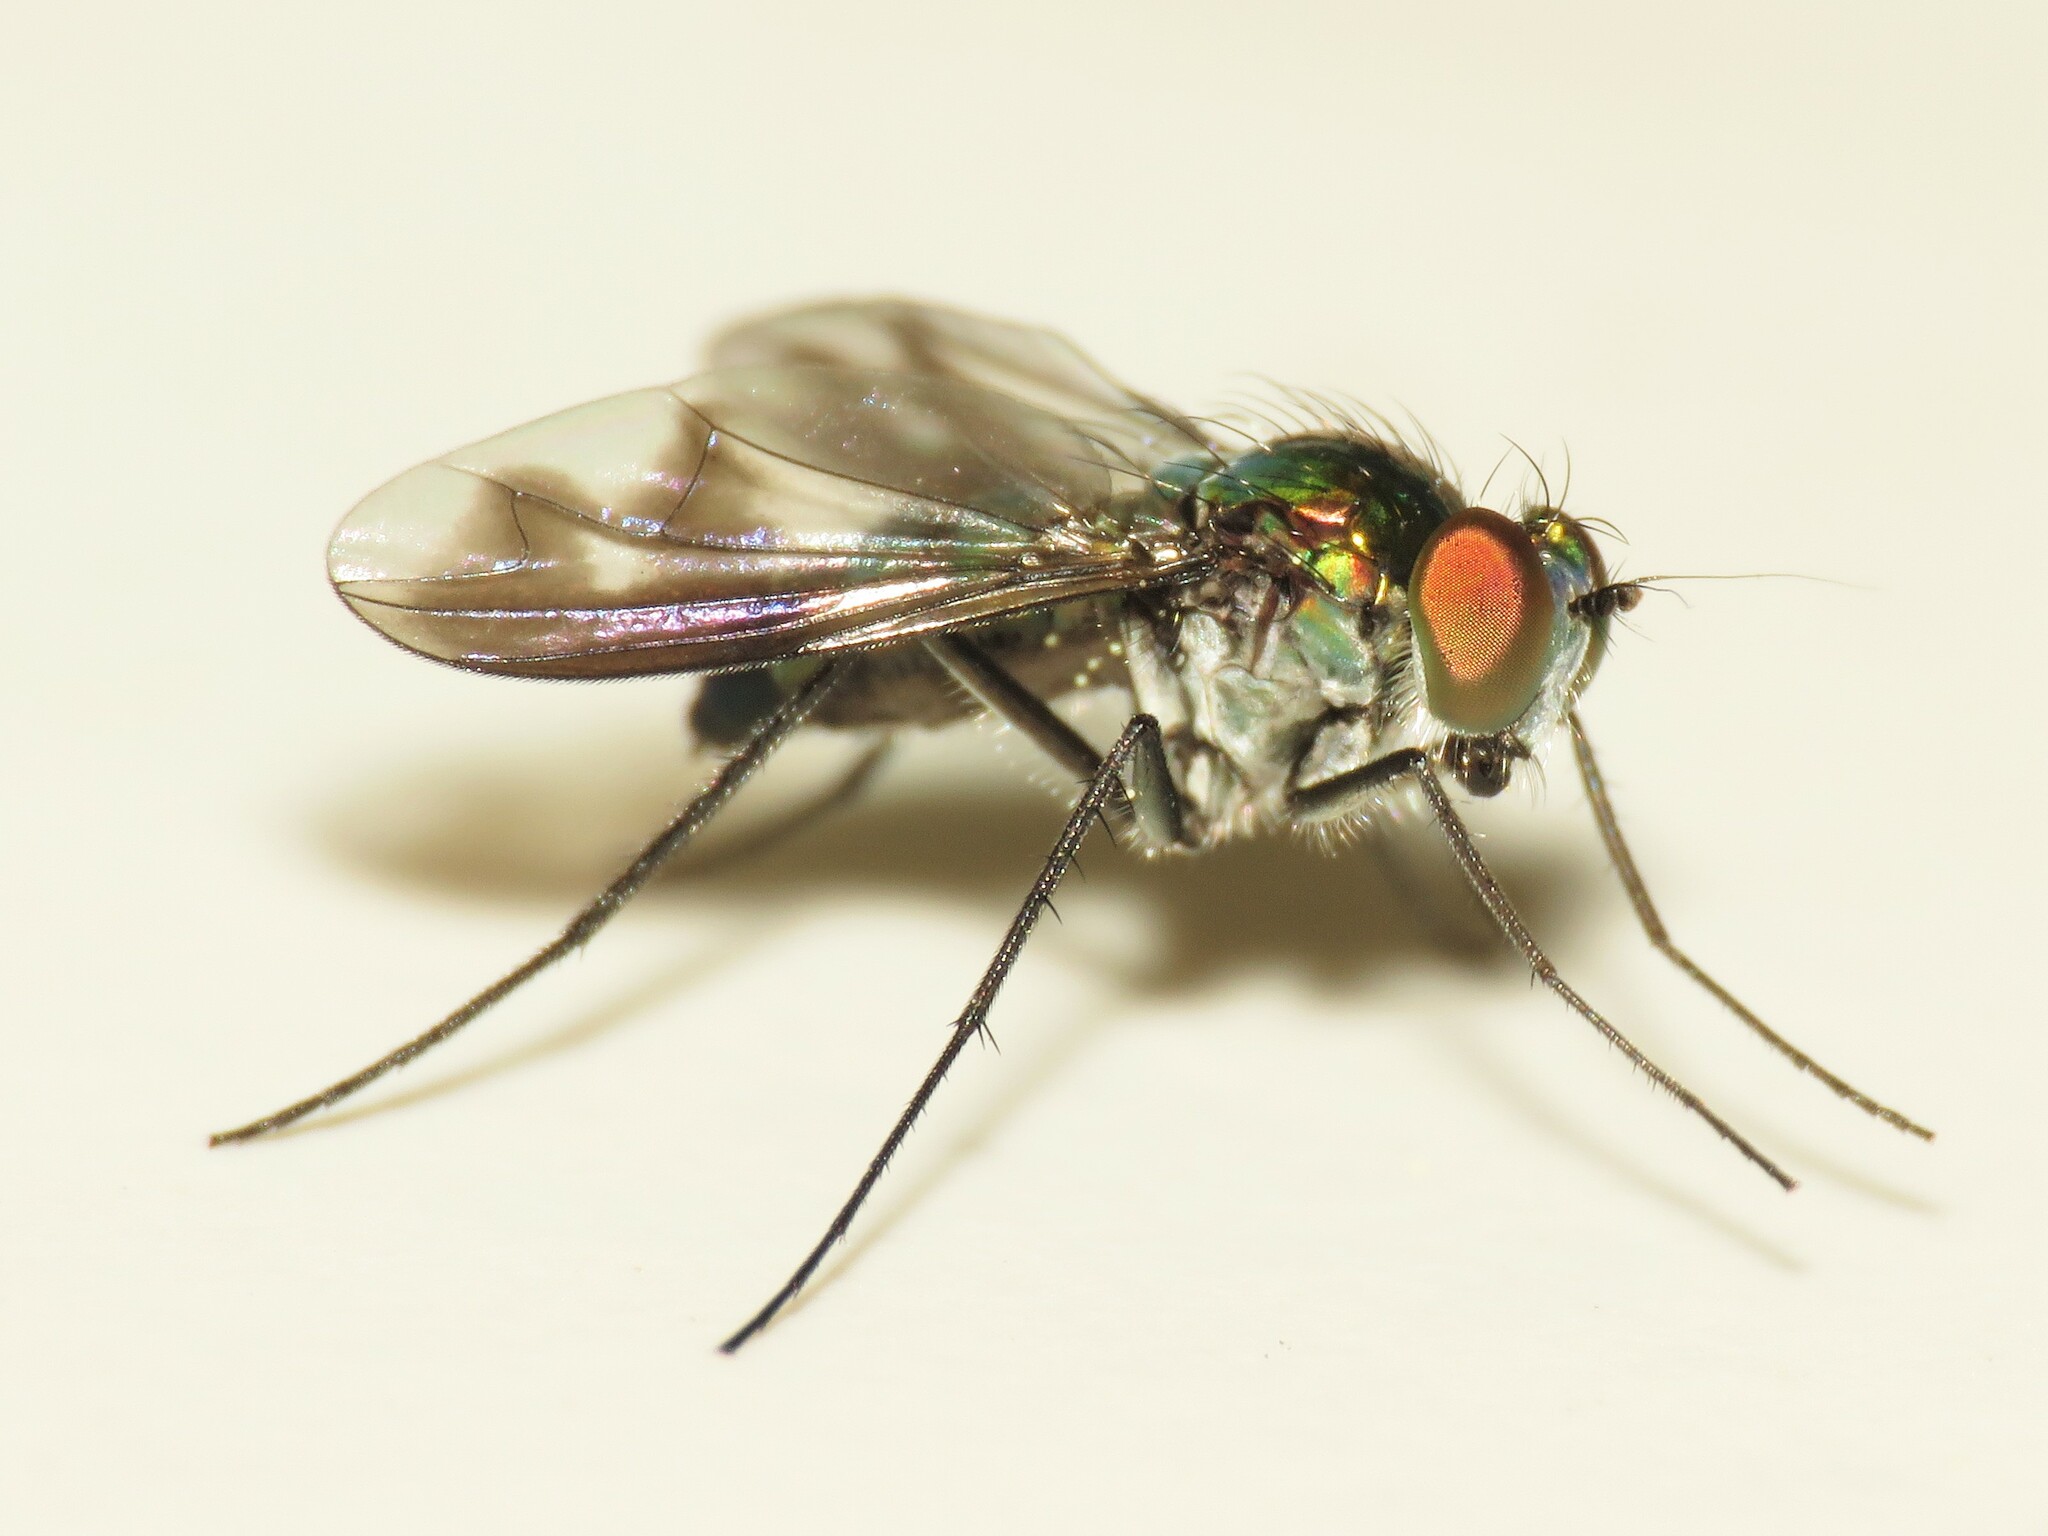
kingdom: Animalia
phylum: Arthropoda
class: Insecta
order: Diptera
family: Dolichopodidae
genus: Condylostylus
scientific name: Condylostylus patibulatus
